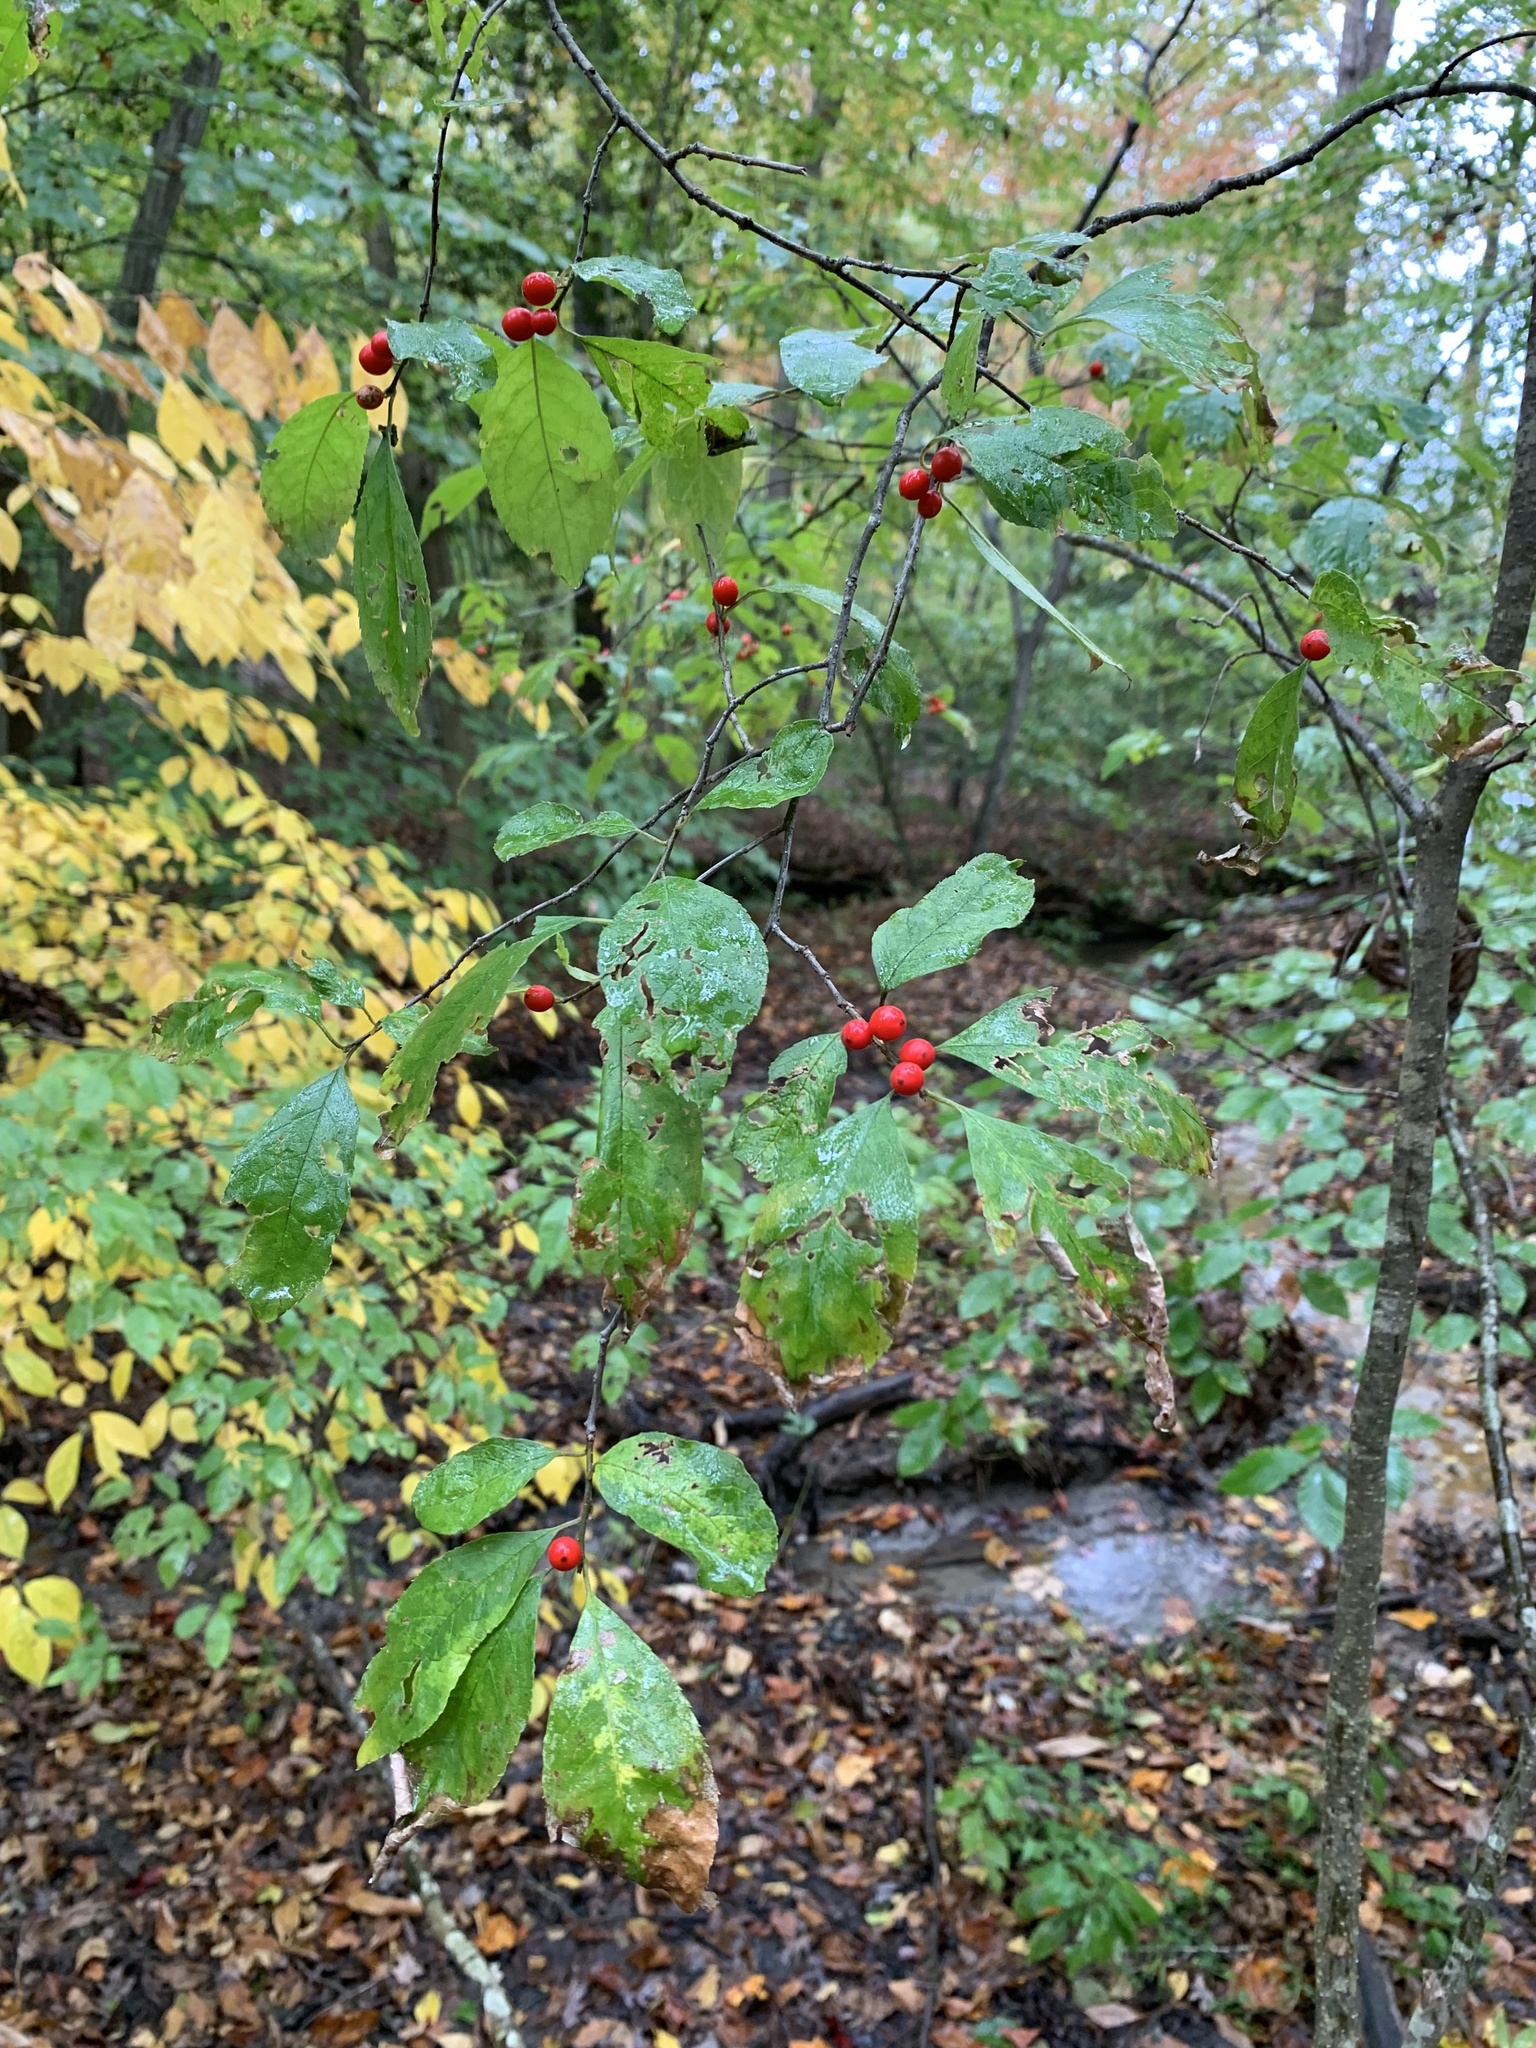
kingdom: Plantae
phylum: Tracheophyta
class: Magnoliopsida
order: Aquifoliales
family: Aquifoliaceae
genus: Ilex
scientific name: Ilex verticillata
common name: Virginia winterberry
